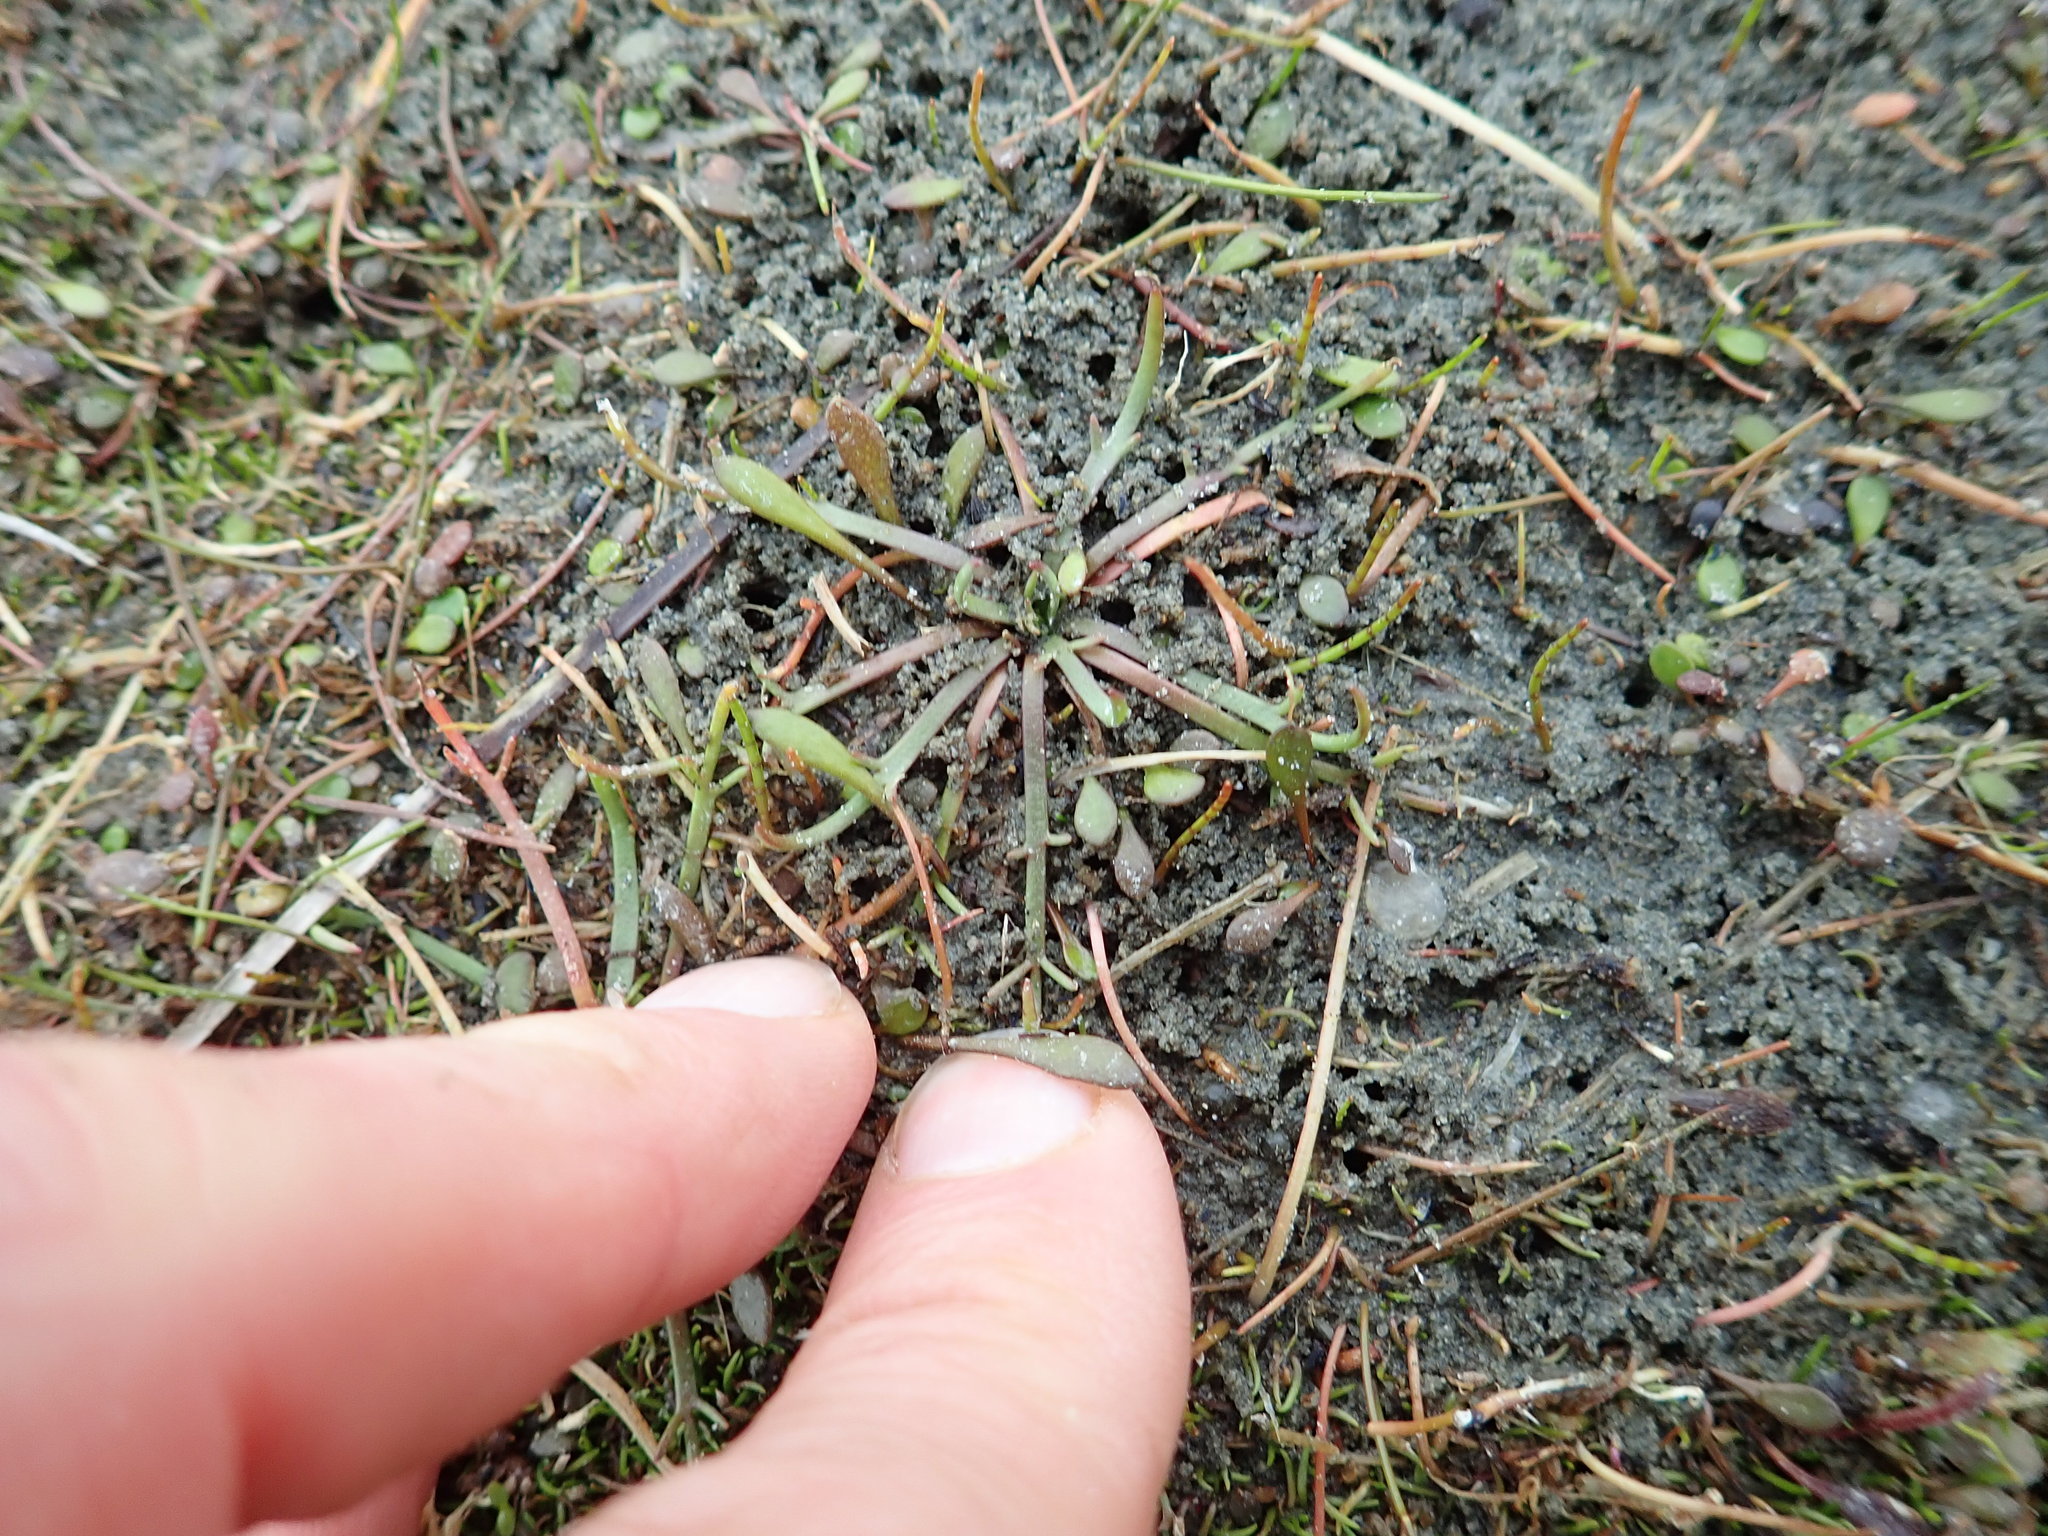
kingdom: Plantae
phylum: Tracheophyta
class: Magnoliopsida
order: Lamiales
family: Plantaginaceae
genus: Plantago
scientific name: Plantago coronopus
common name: Buck's-horn plantain
